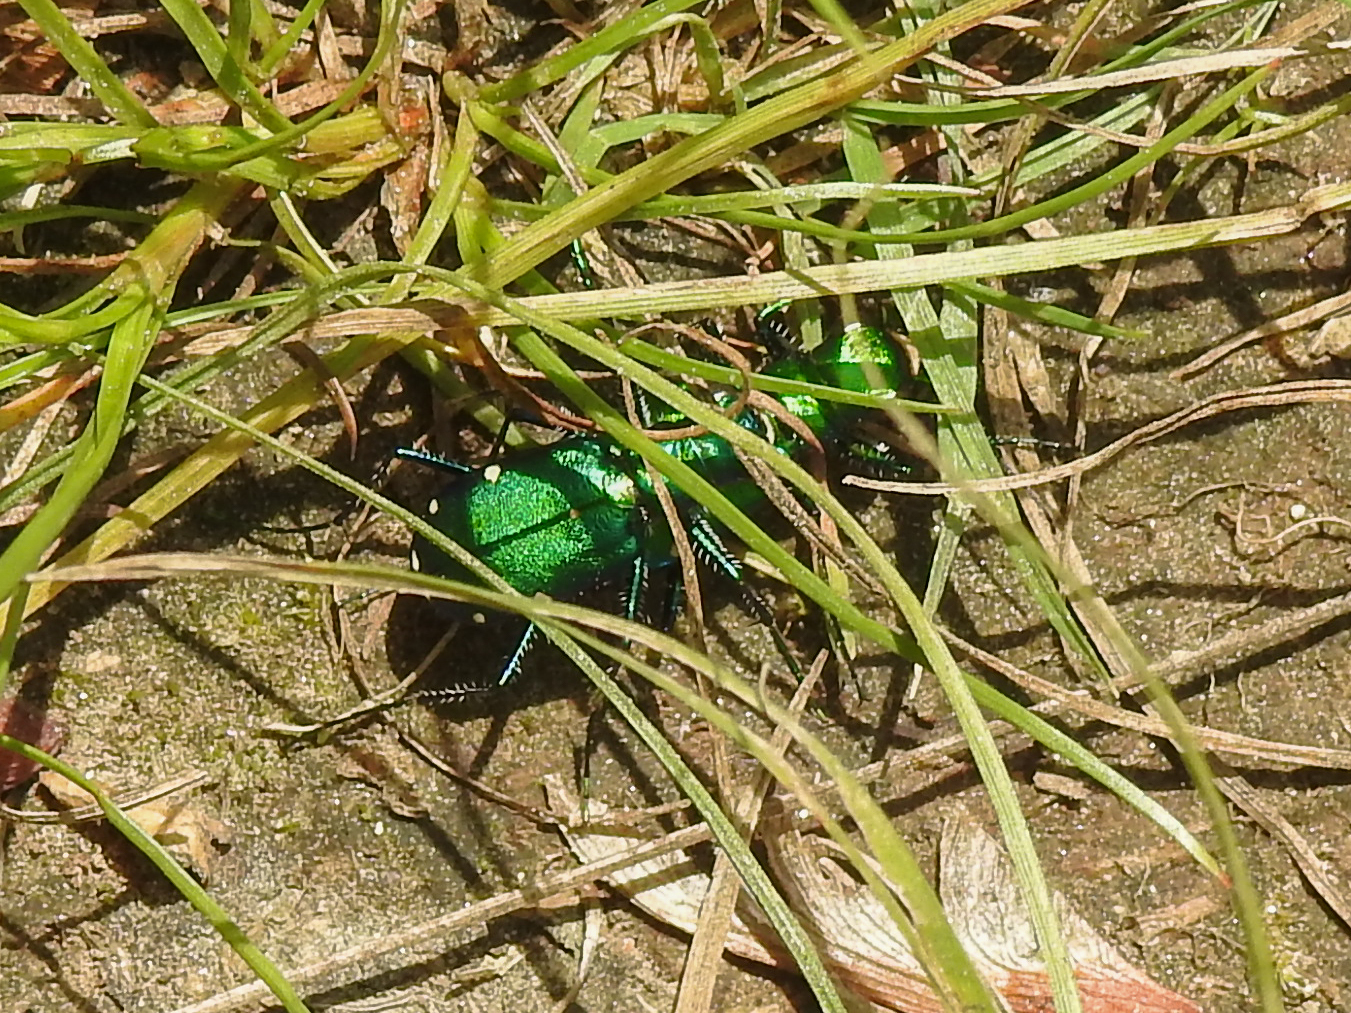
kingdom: Animalia
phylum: Arthropoda
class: Insecta
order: Coleoptera
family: Carabidae
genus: Cicindela
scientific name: Cicindela sexguttata
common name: Six-spotted tiger beetle
